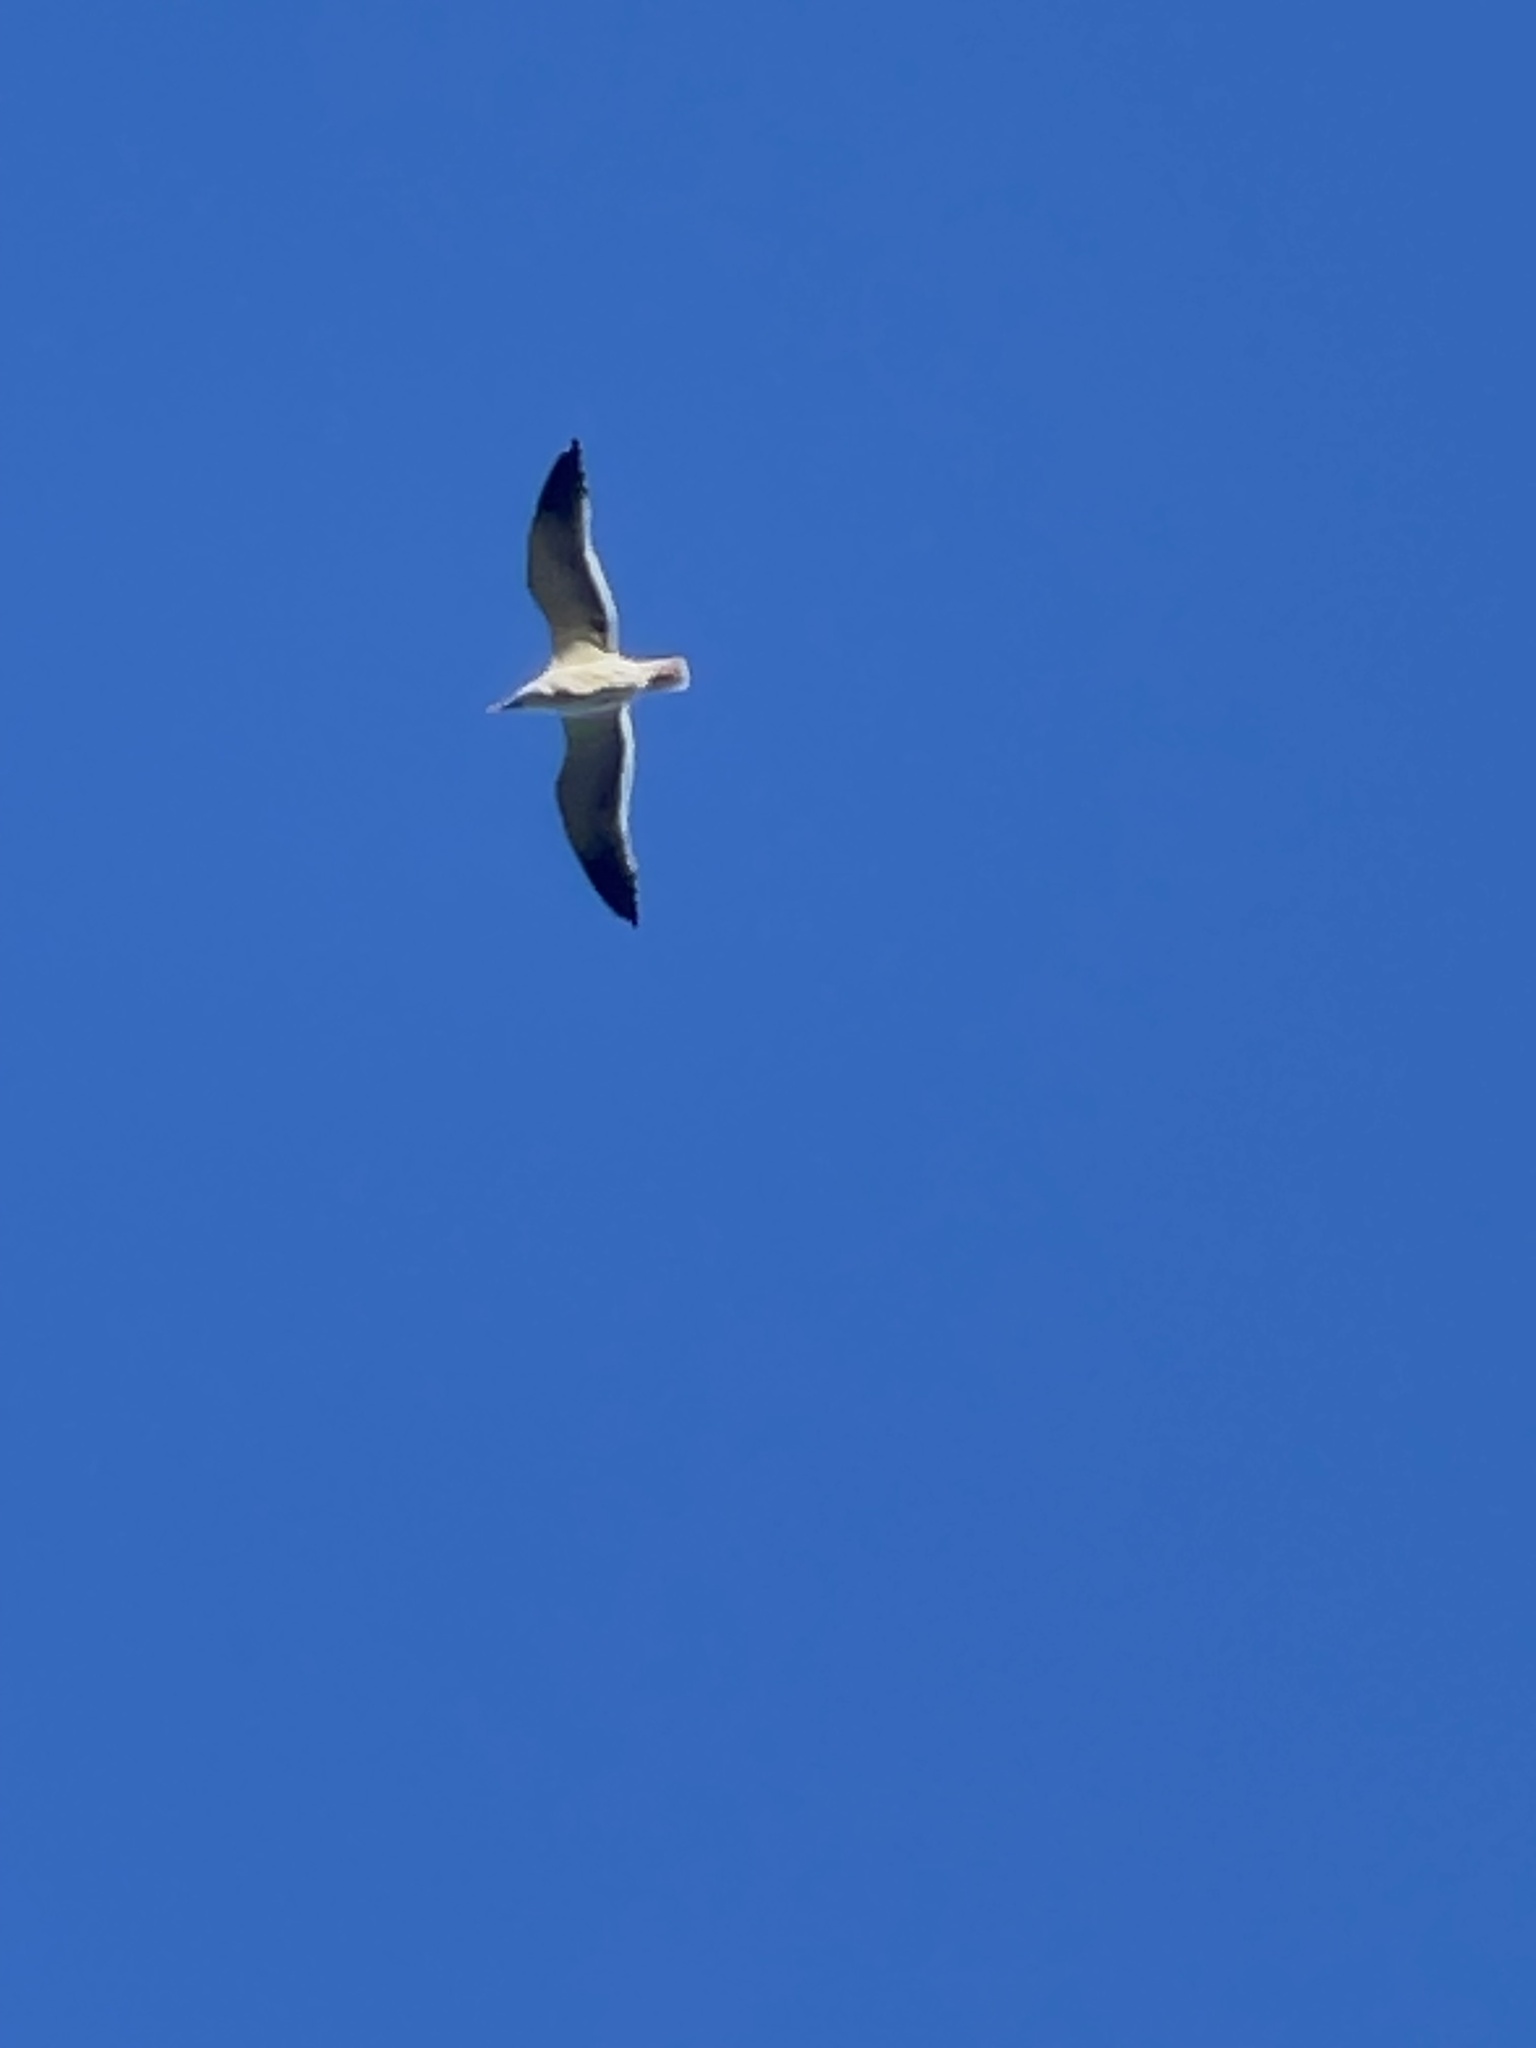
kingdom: Animalia
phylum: Chordata
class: Aves
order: Charadriiformes
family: Laridae
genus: Larus
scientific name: Larus occidentalis
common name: Western gull
